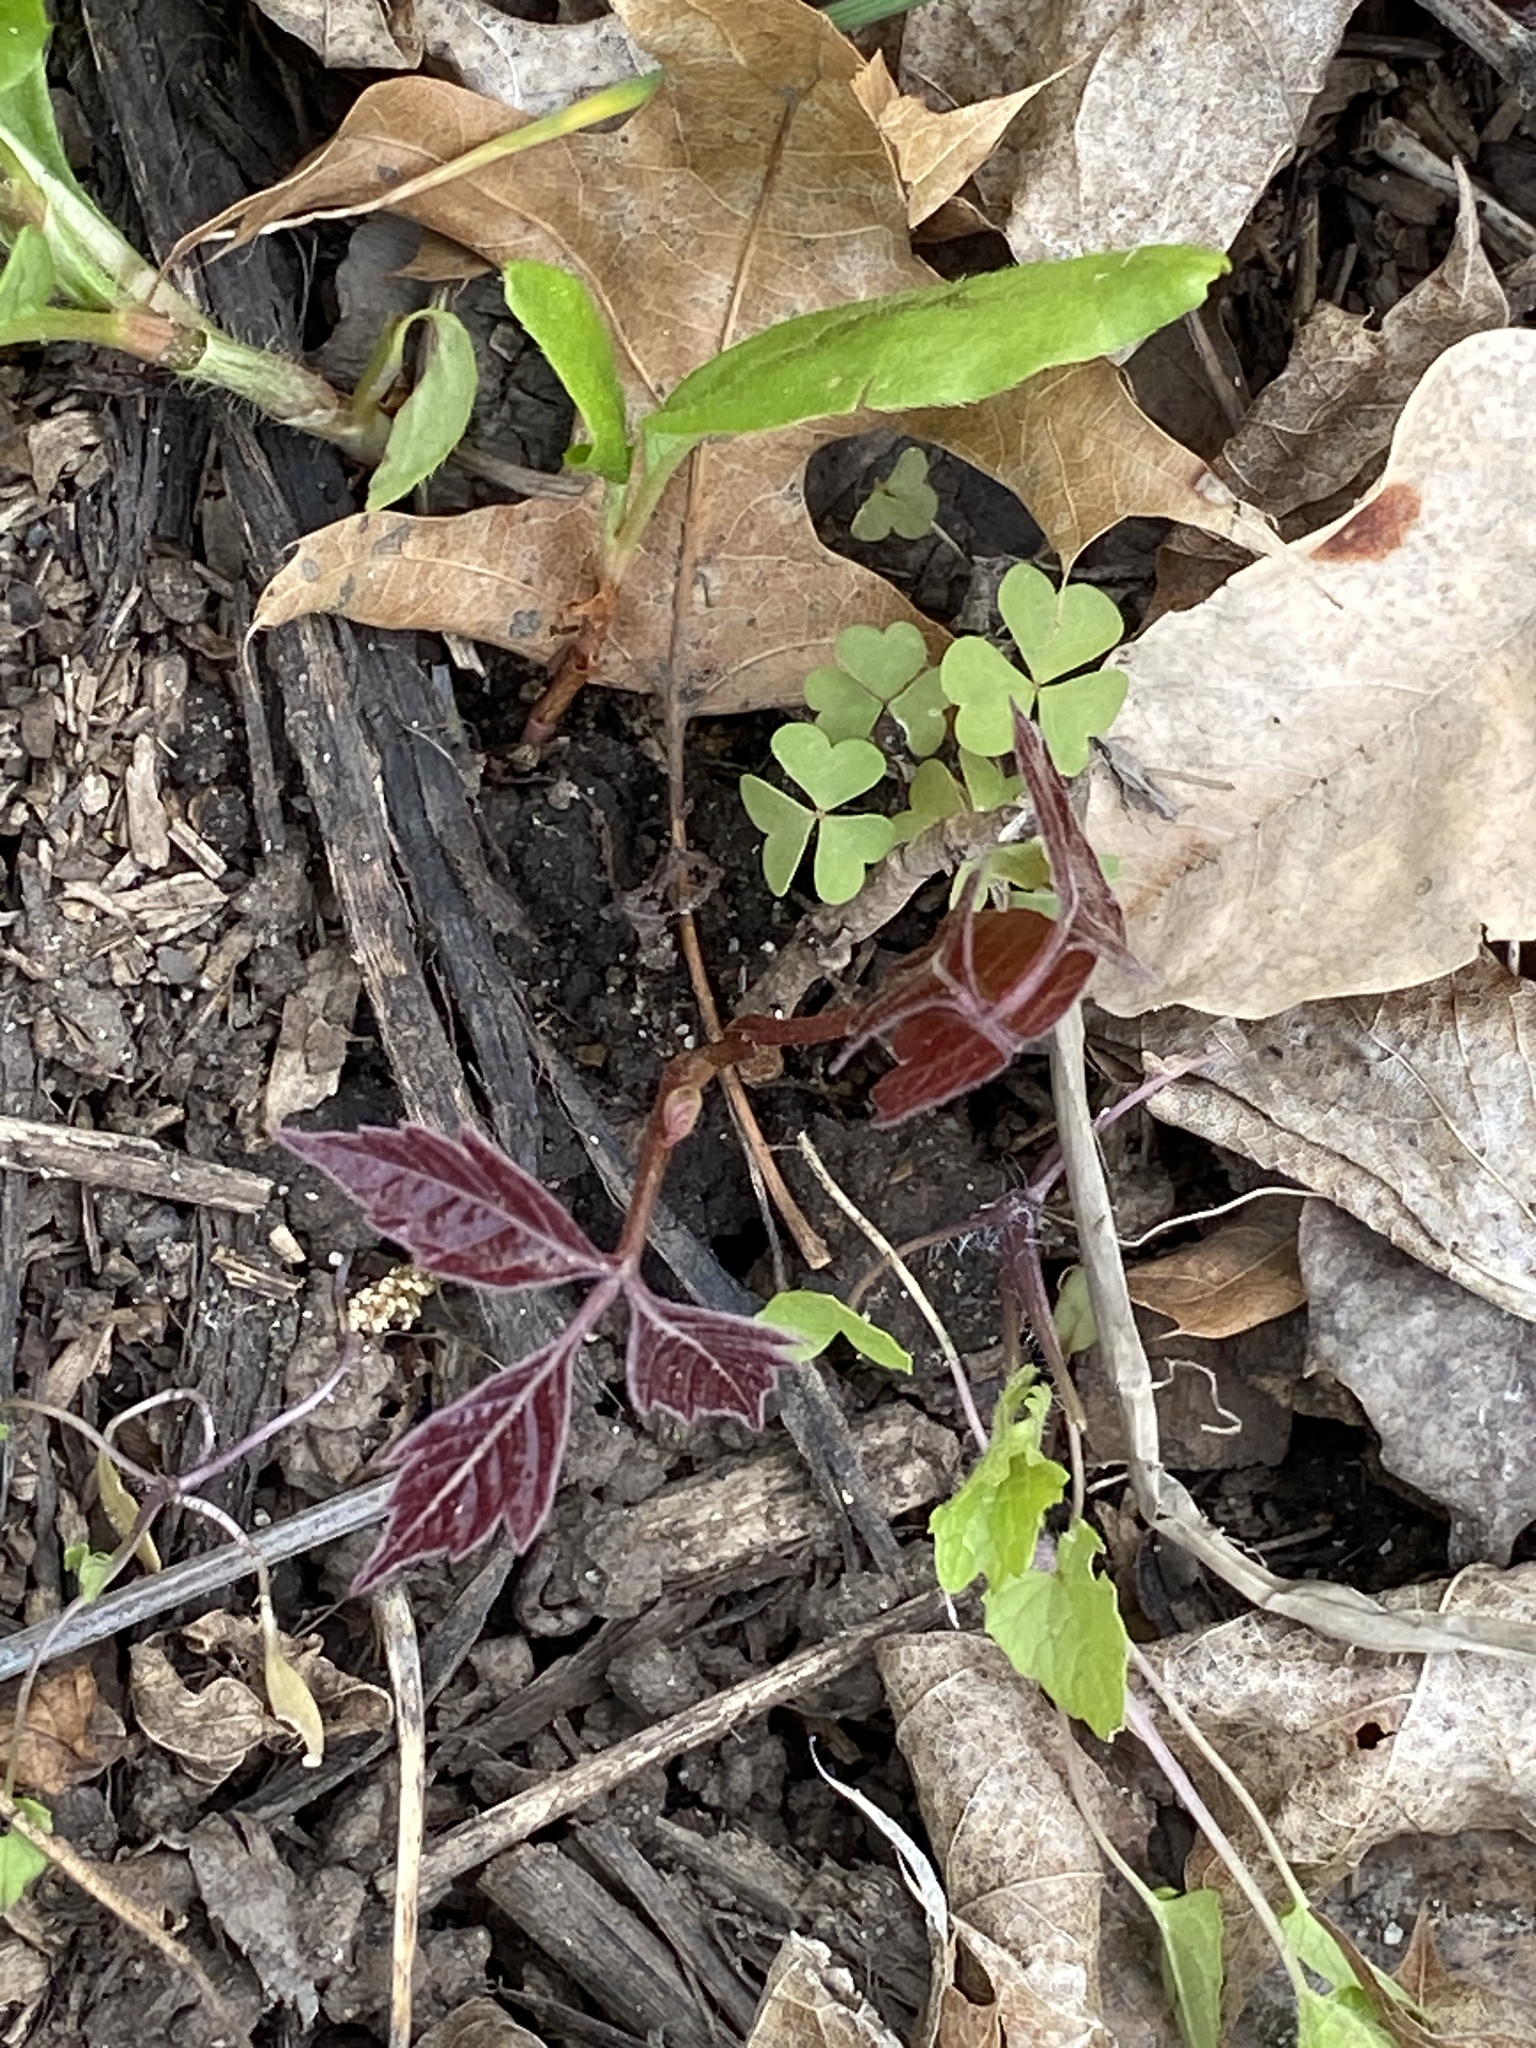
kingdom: Plantae
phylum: Tracheophyta
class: Magnoliopsida
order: Sapindales
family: Anacardiaceae
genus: Toxicodendron
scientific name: Toxicodendron radicans
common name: Poison ivy
